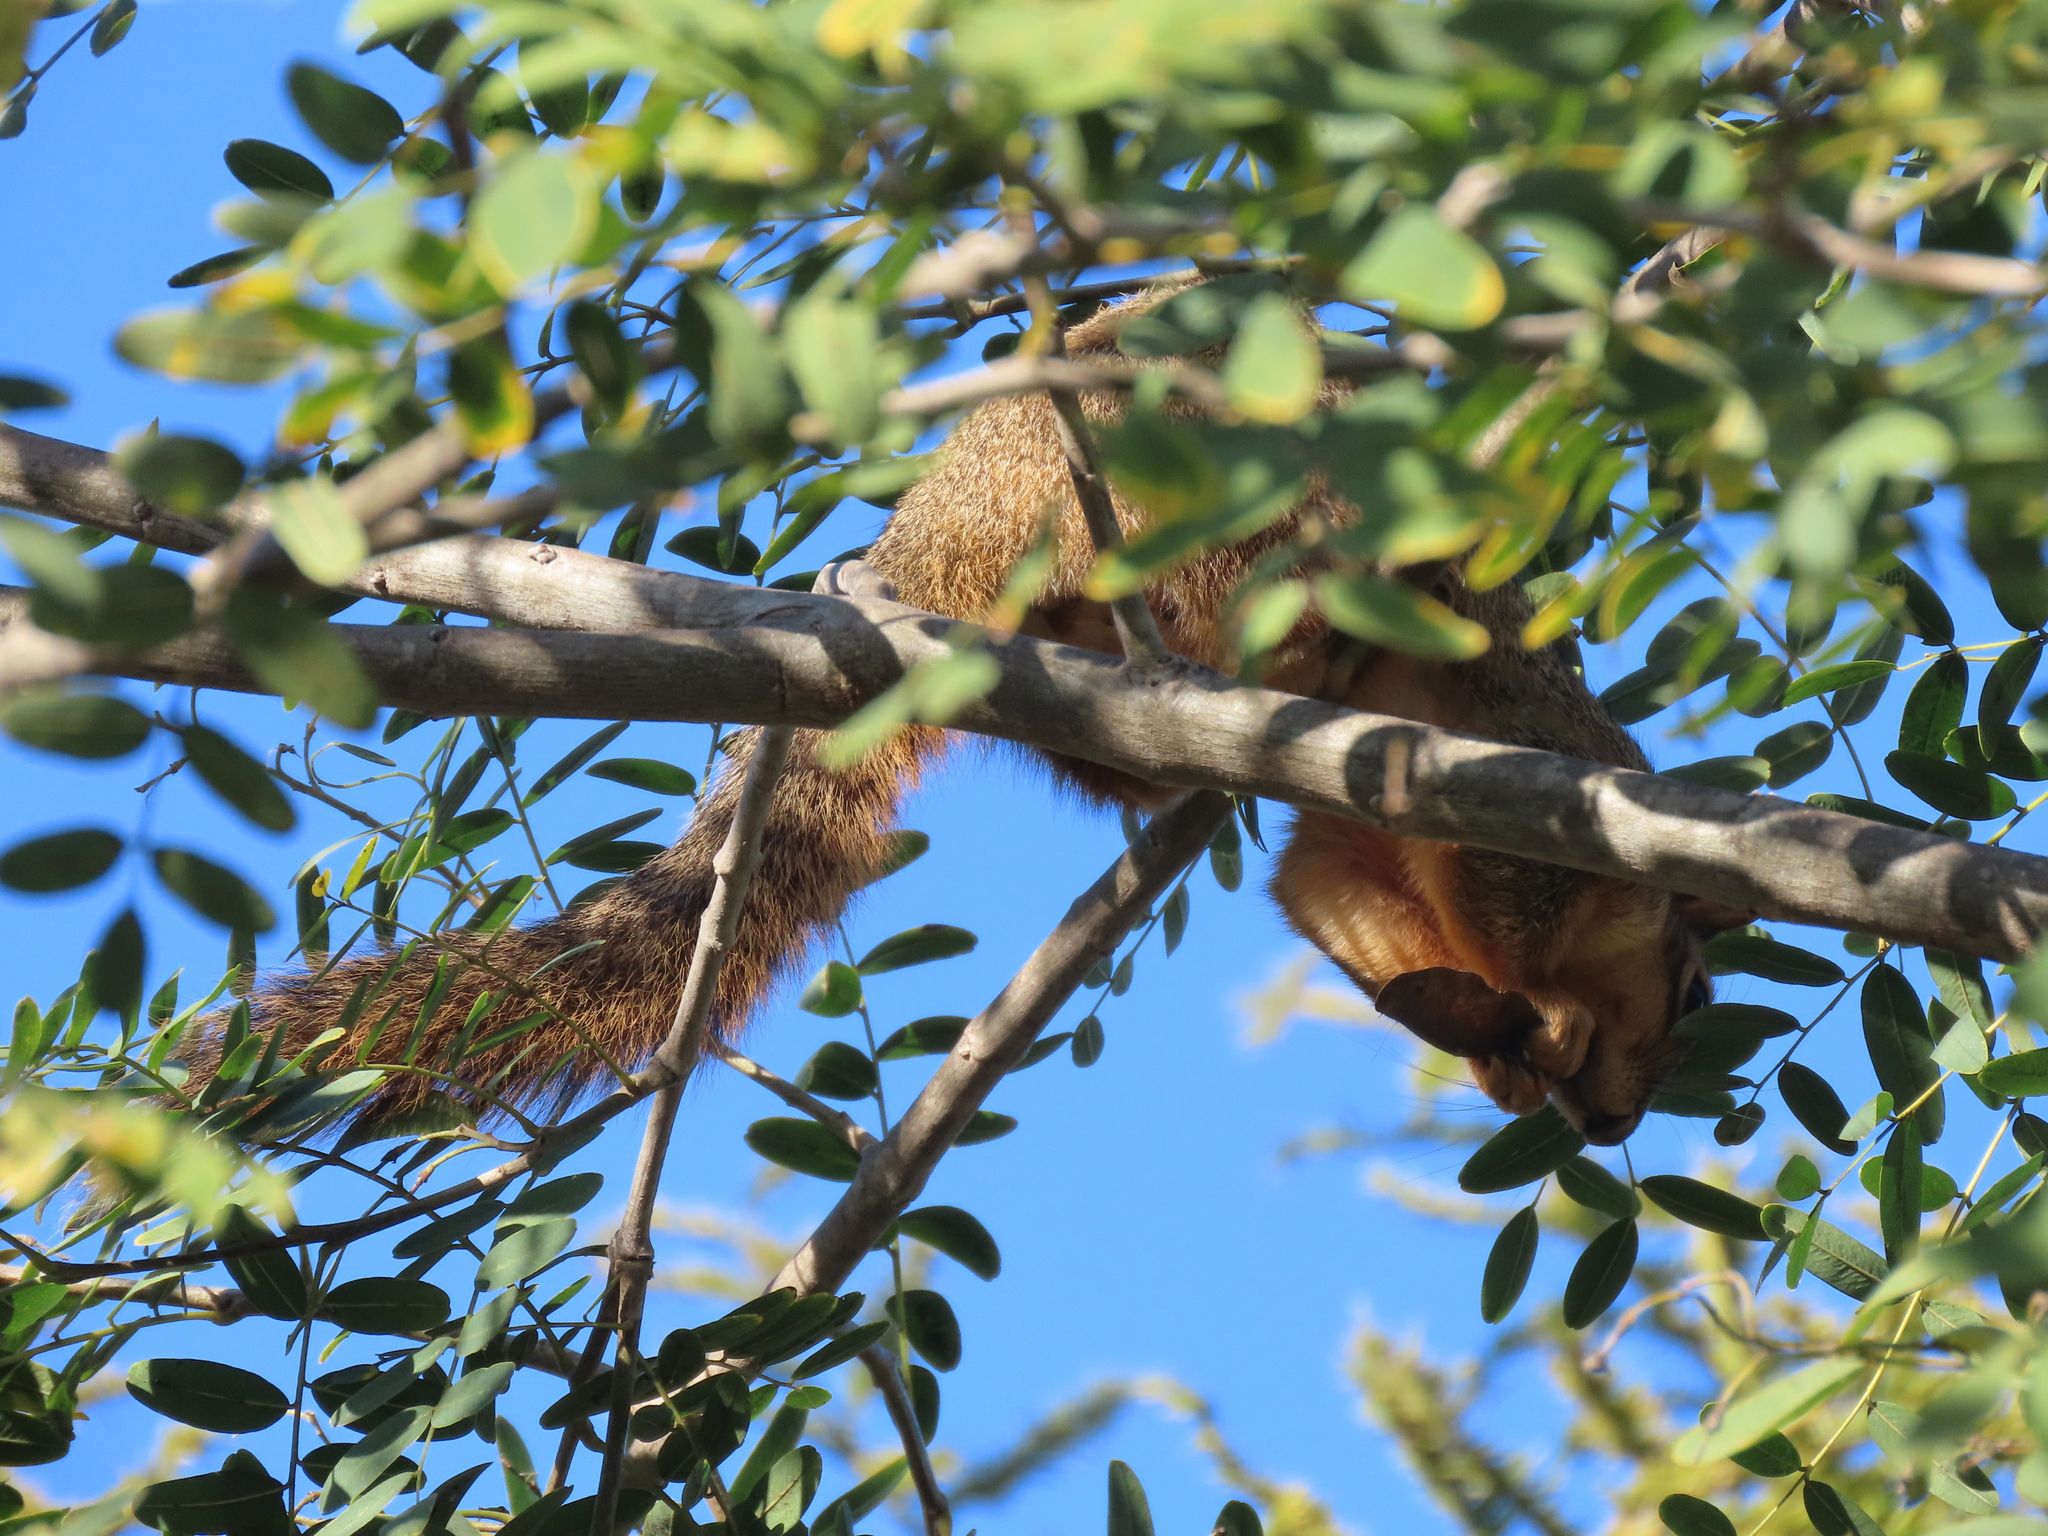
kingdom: Animalia
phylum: Chordata
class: Mammalia
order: Rodentia
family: Sciuridae
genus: Sciurus
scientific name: Sciurus niger
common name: Fox squirrel
